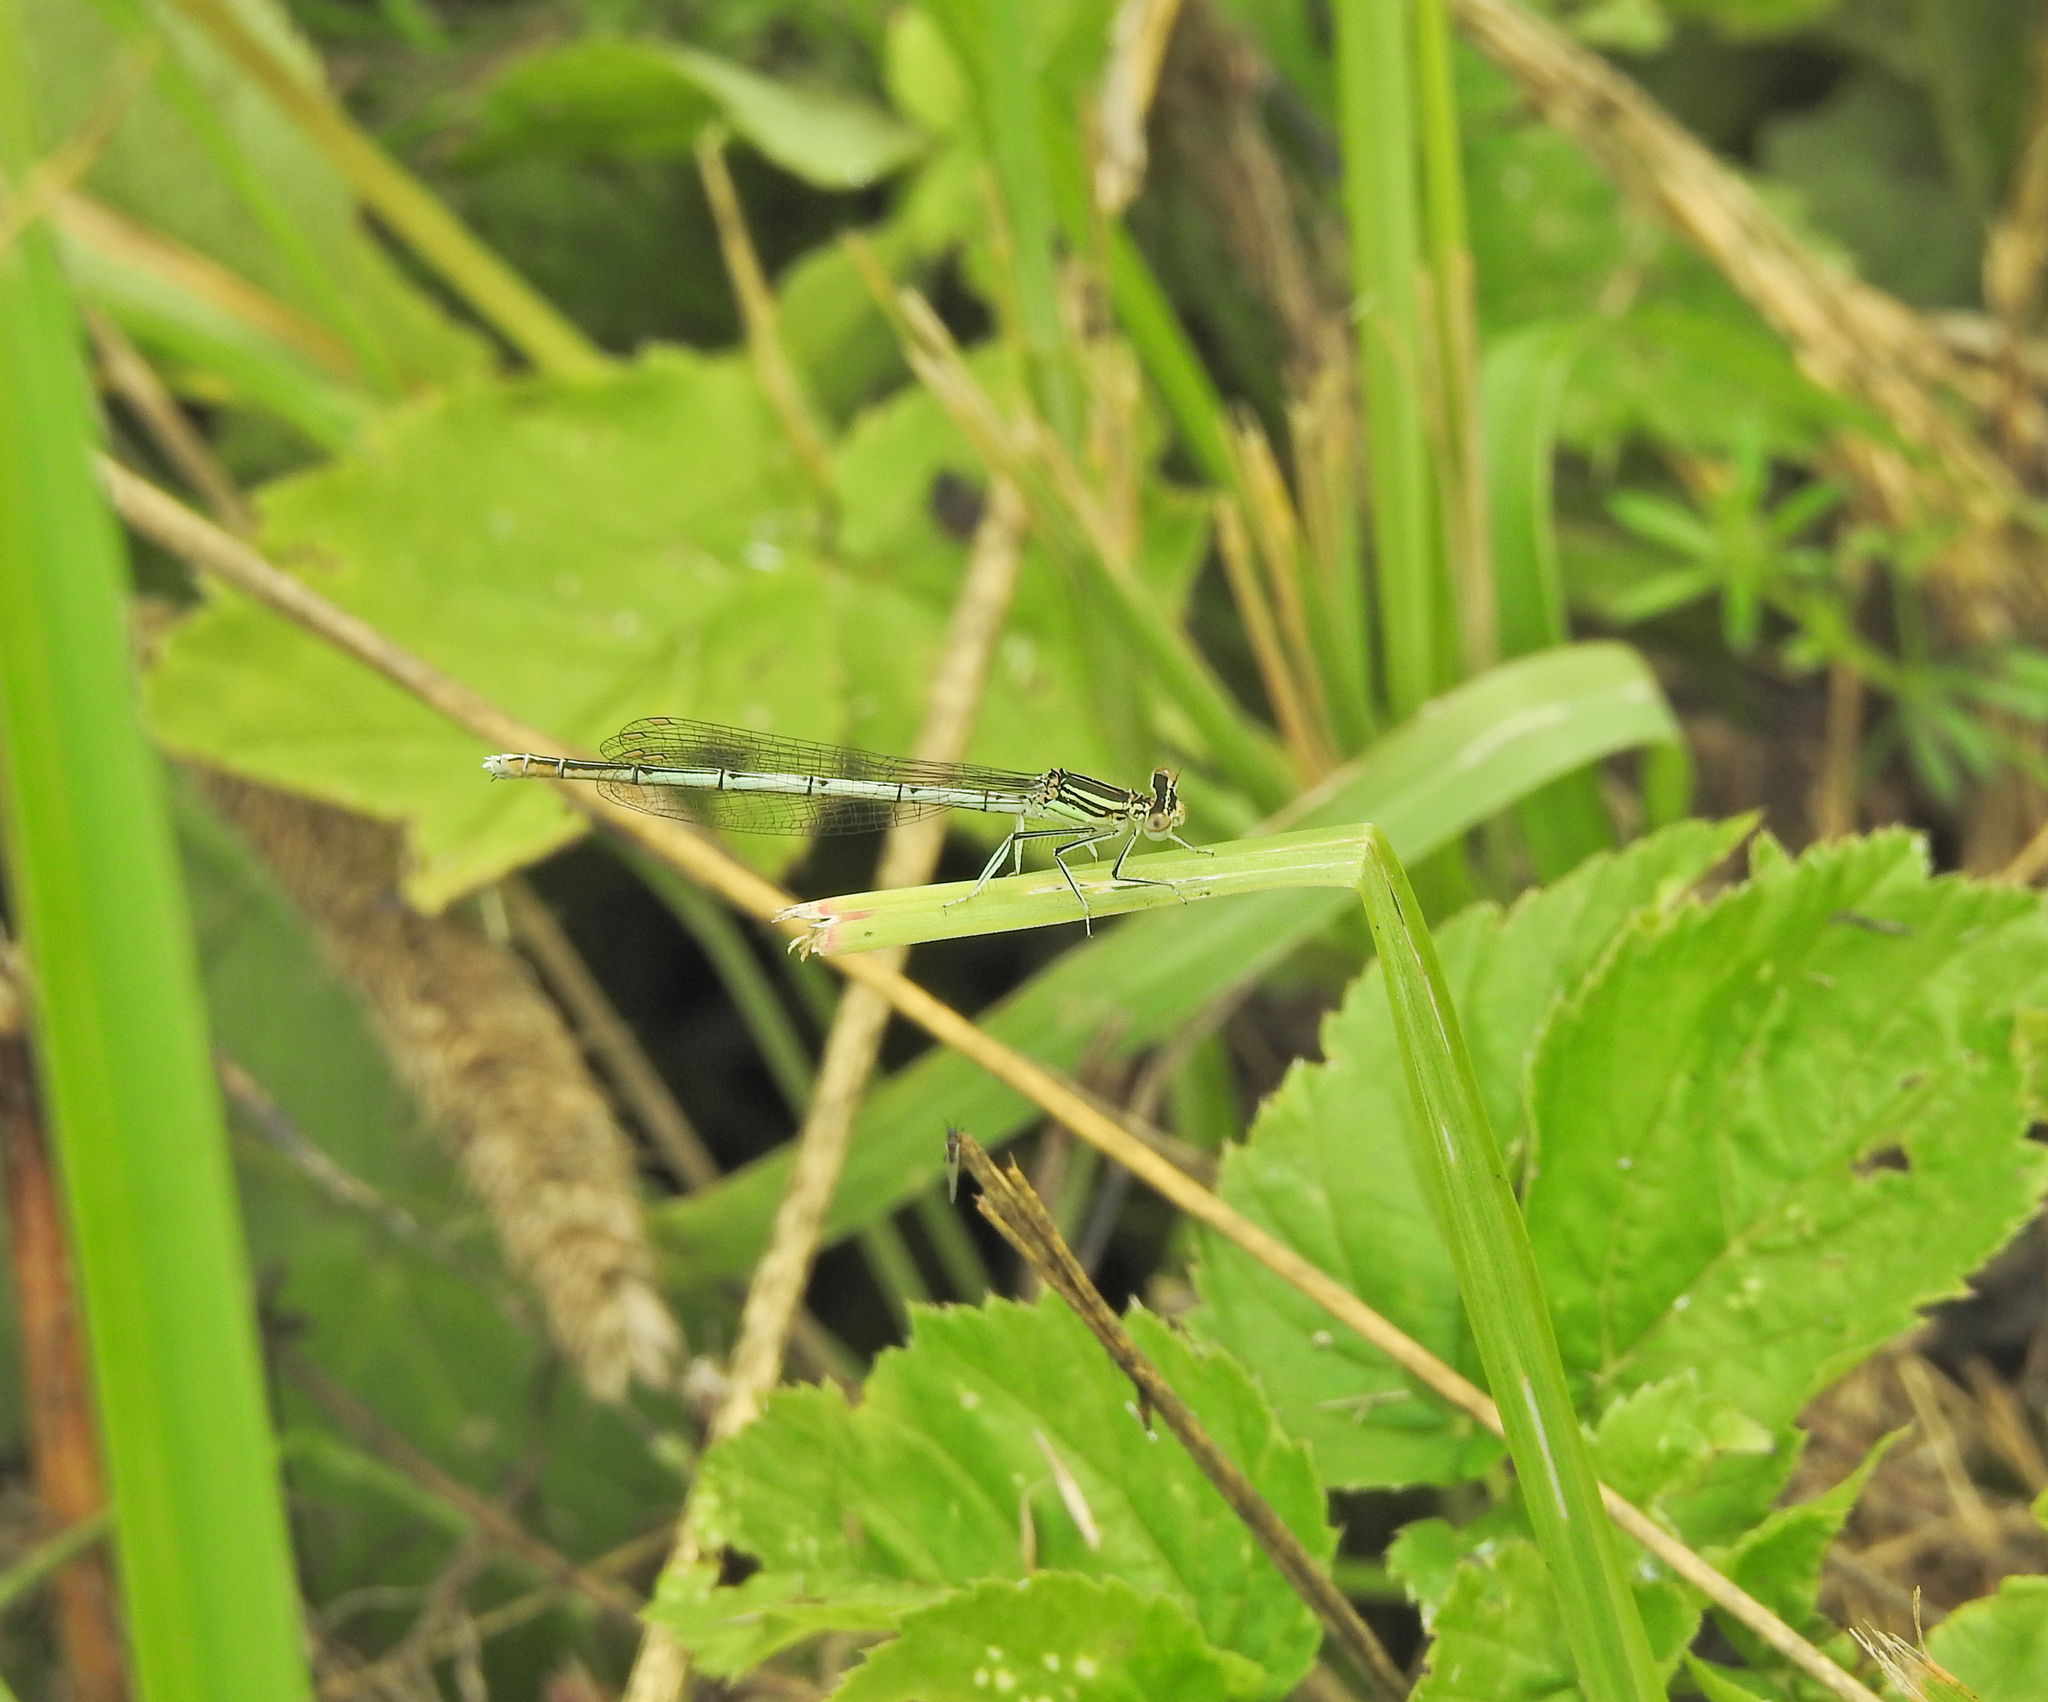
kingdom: Animalia
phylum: Arthropoda
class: Insecta
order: Odonata
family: Platycnemididae
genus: Platycnemis
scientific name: Platycnemis pennipes
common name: White-legged damselfly
